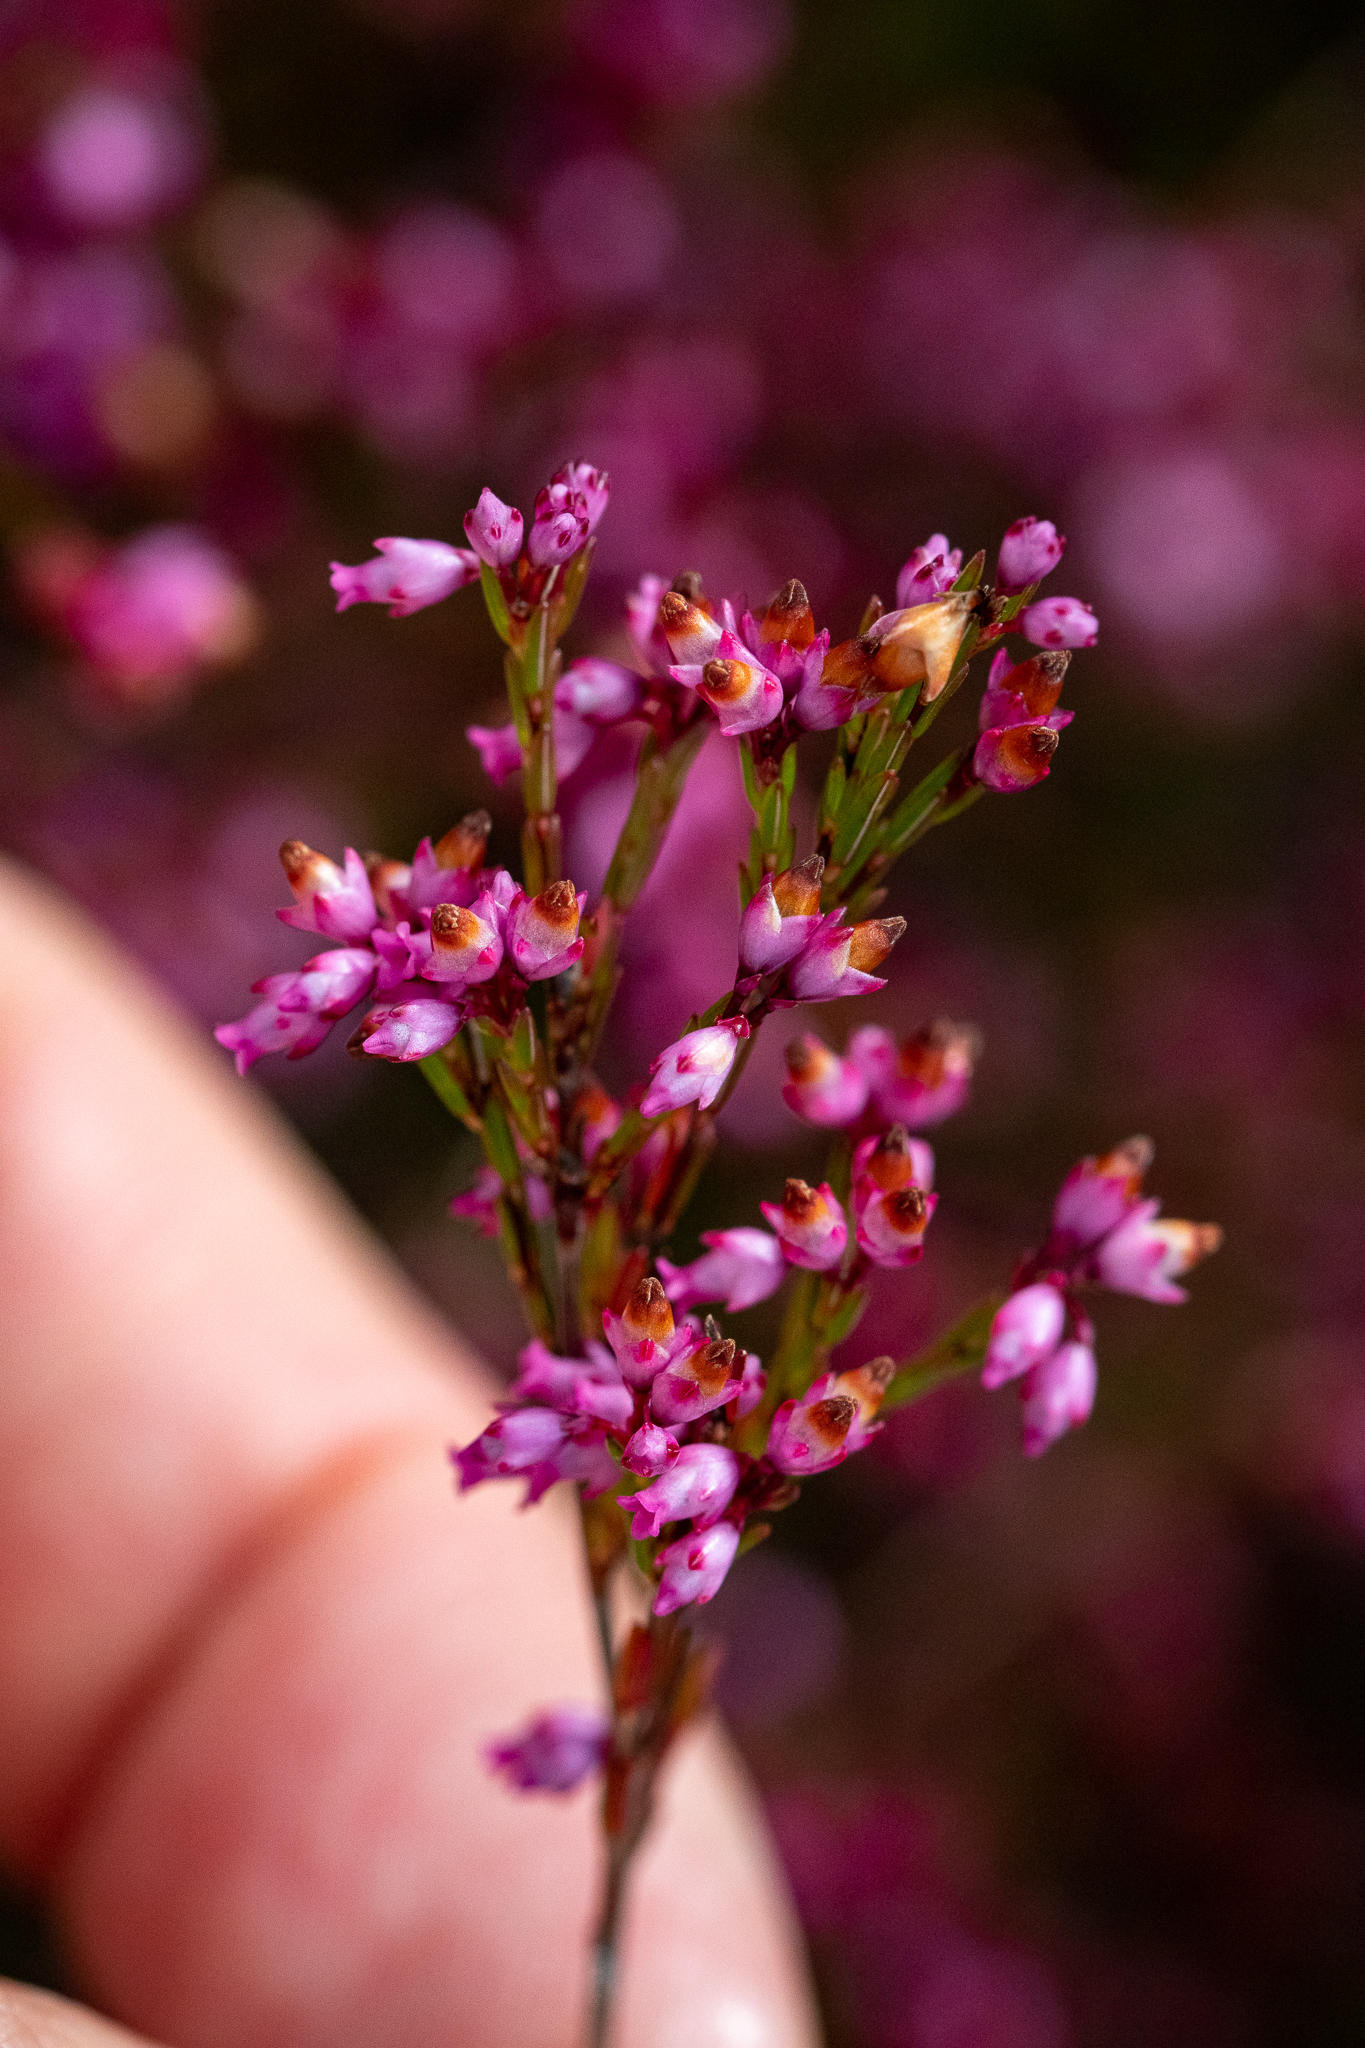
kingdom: Plantae
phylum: Tracheophyta
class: Magnoliopsida
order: Ericales
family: Ericaceae
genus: Erica
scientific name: Erica tenuifolia
